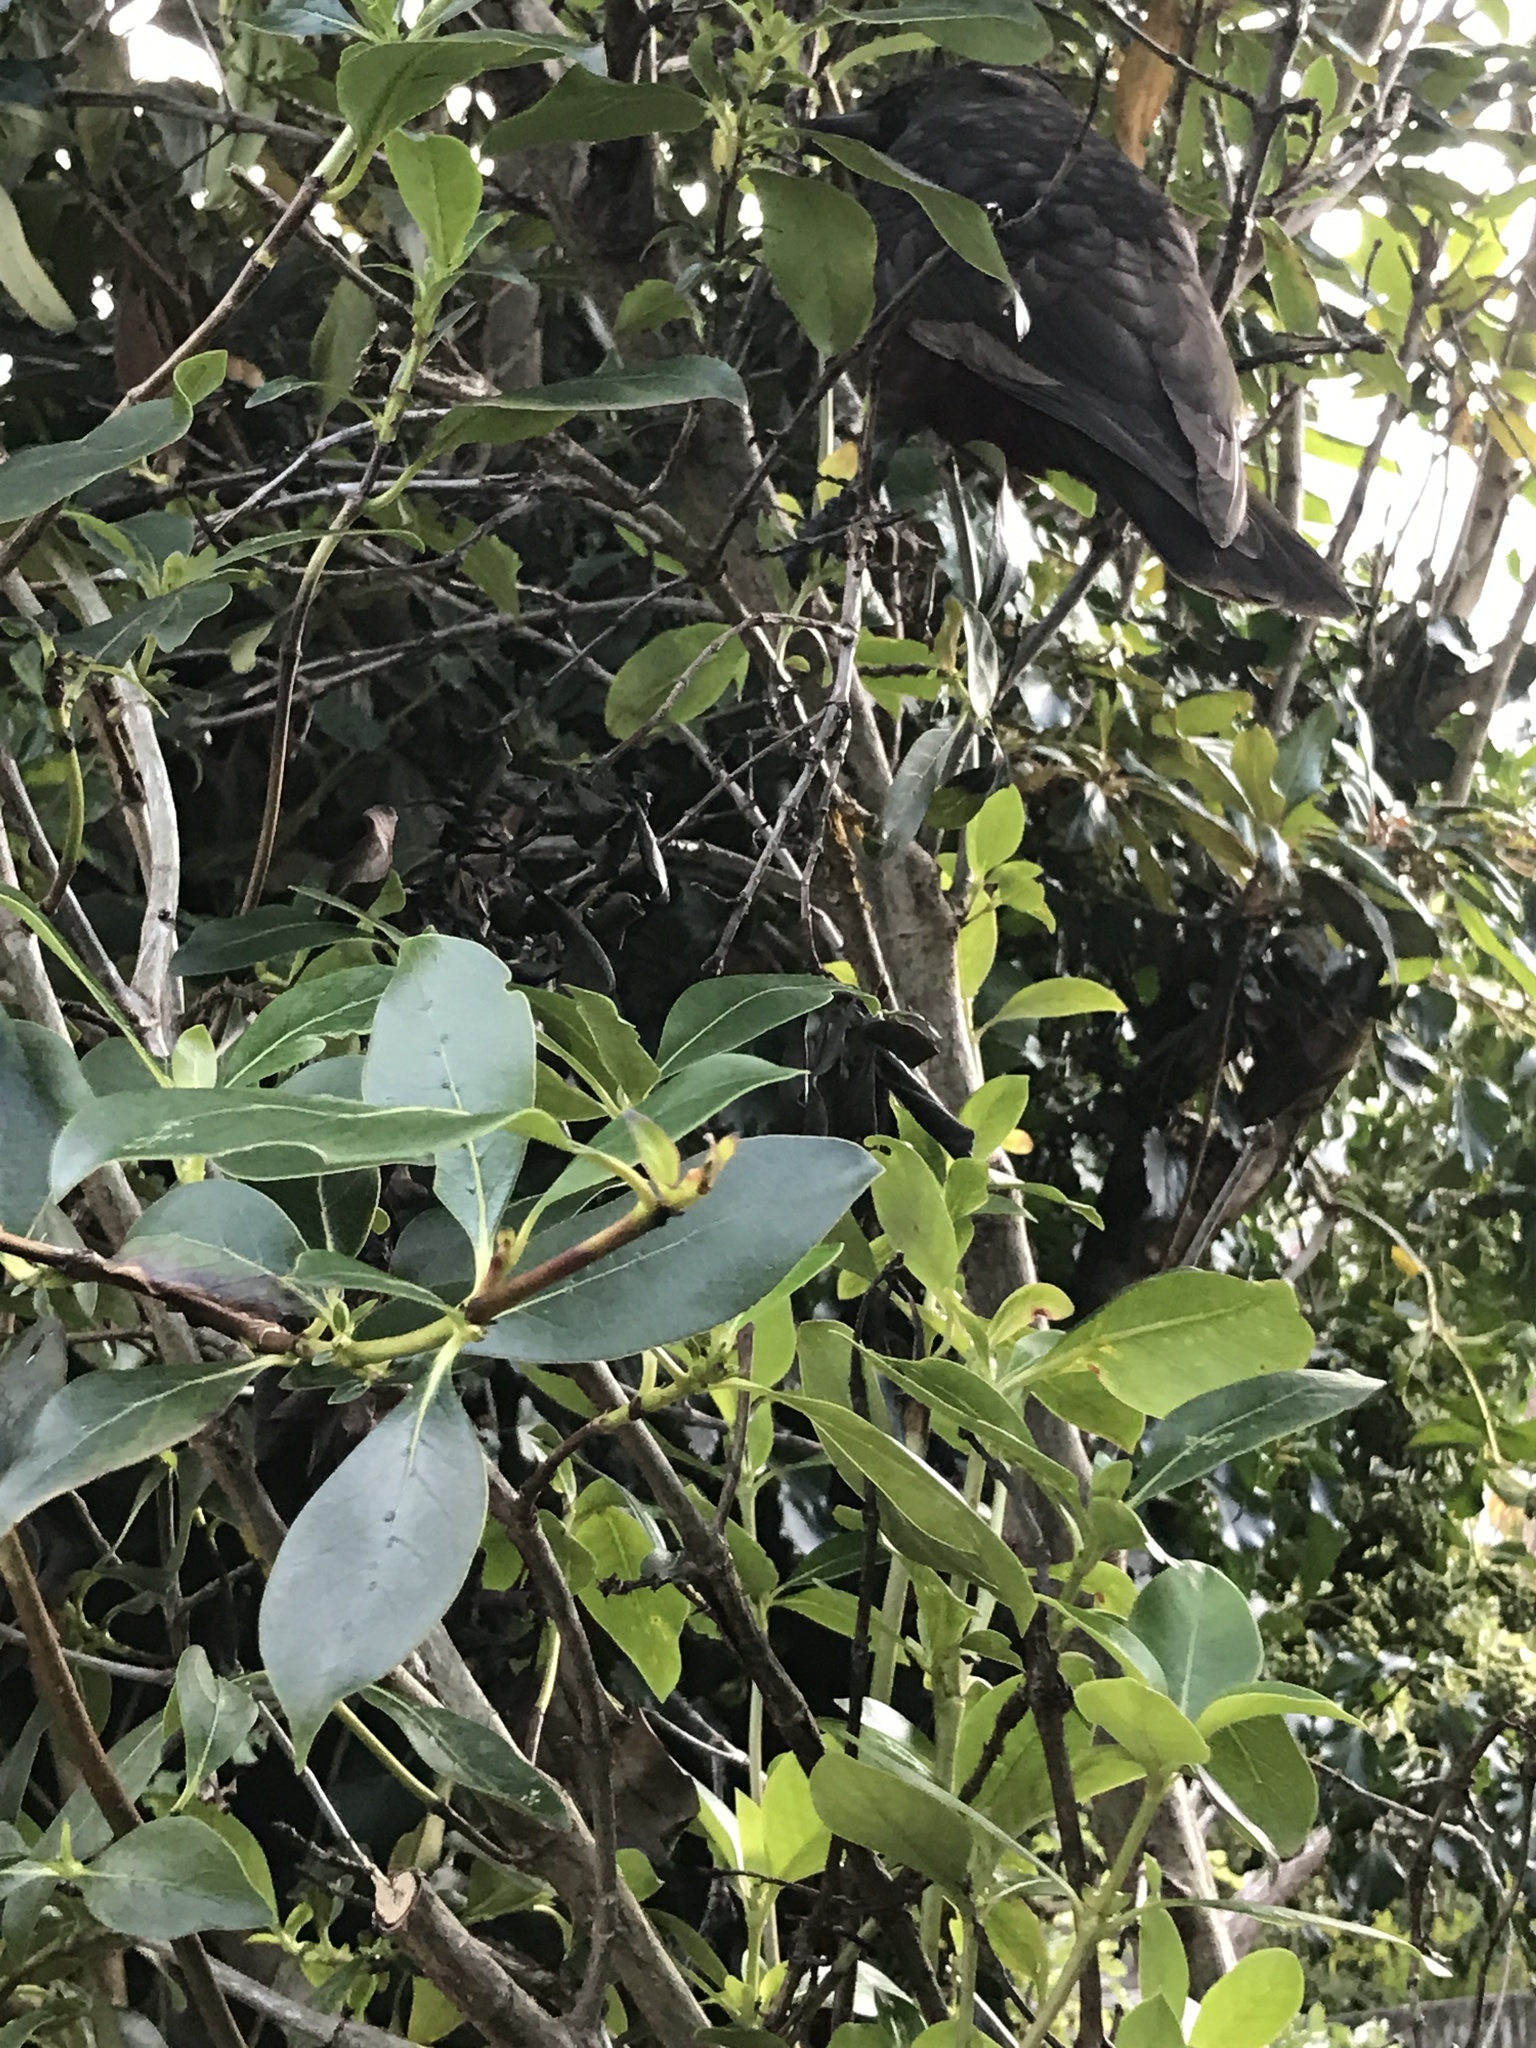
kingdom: Animalia
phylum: Chordata
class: Aves
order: Psittaciformes
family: Psittacidae
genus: Nestor
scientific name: Nestor meridionalis
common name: New zealand kaka
